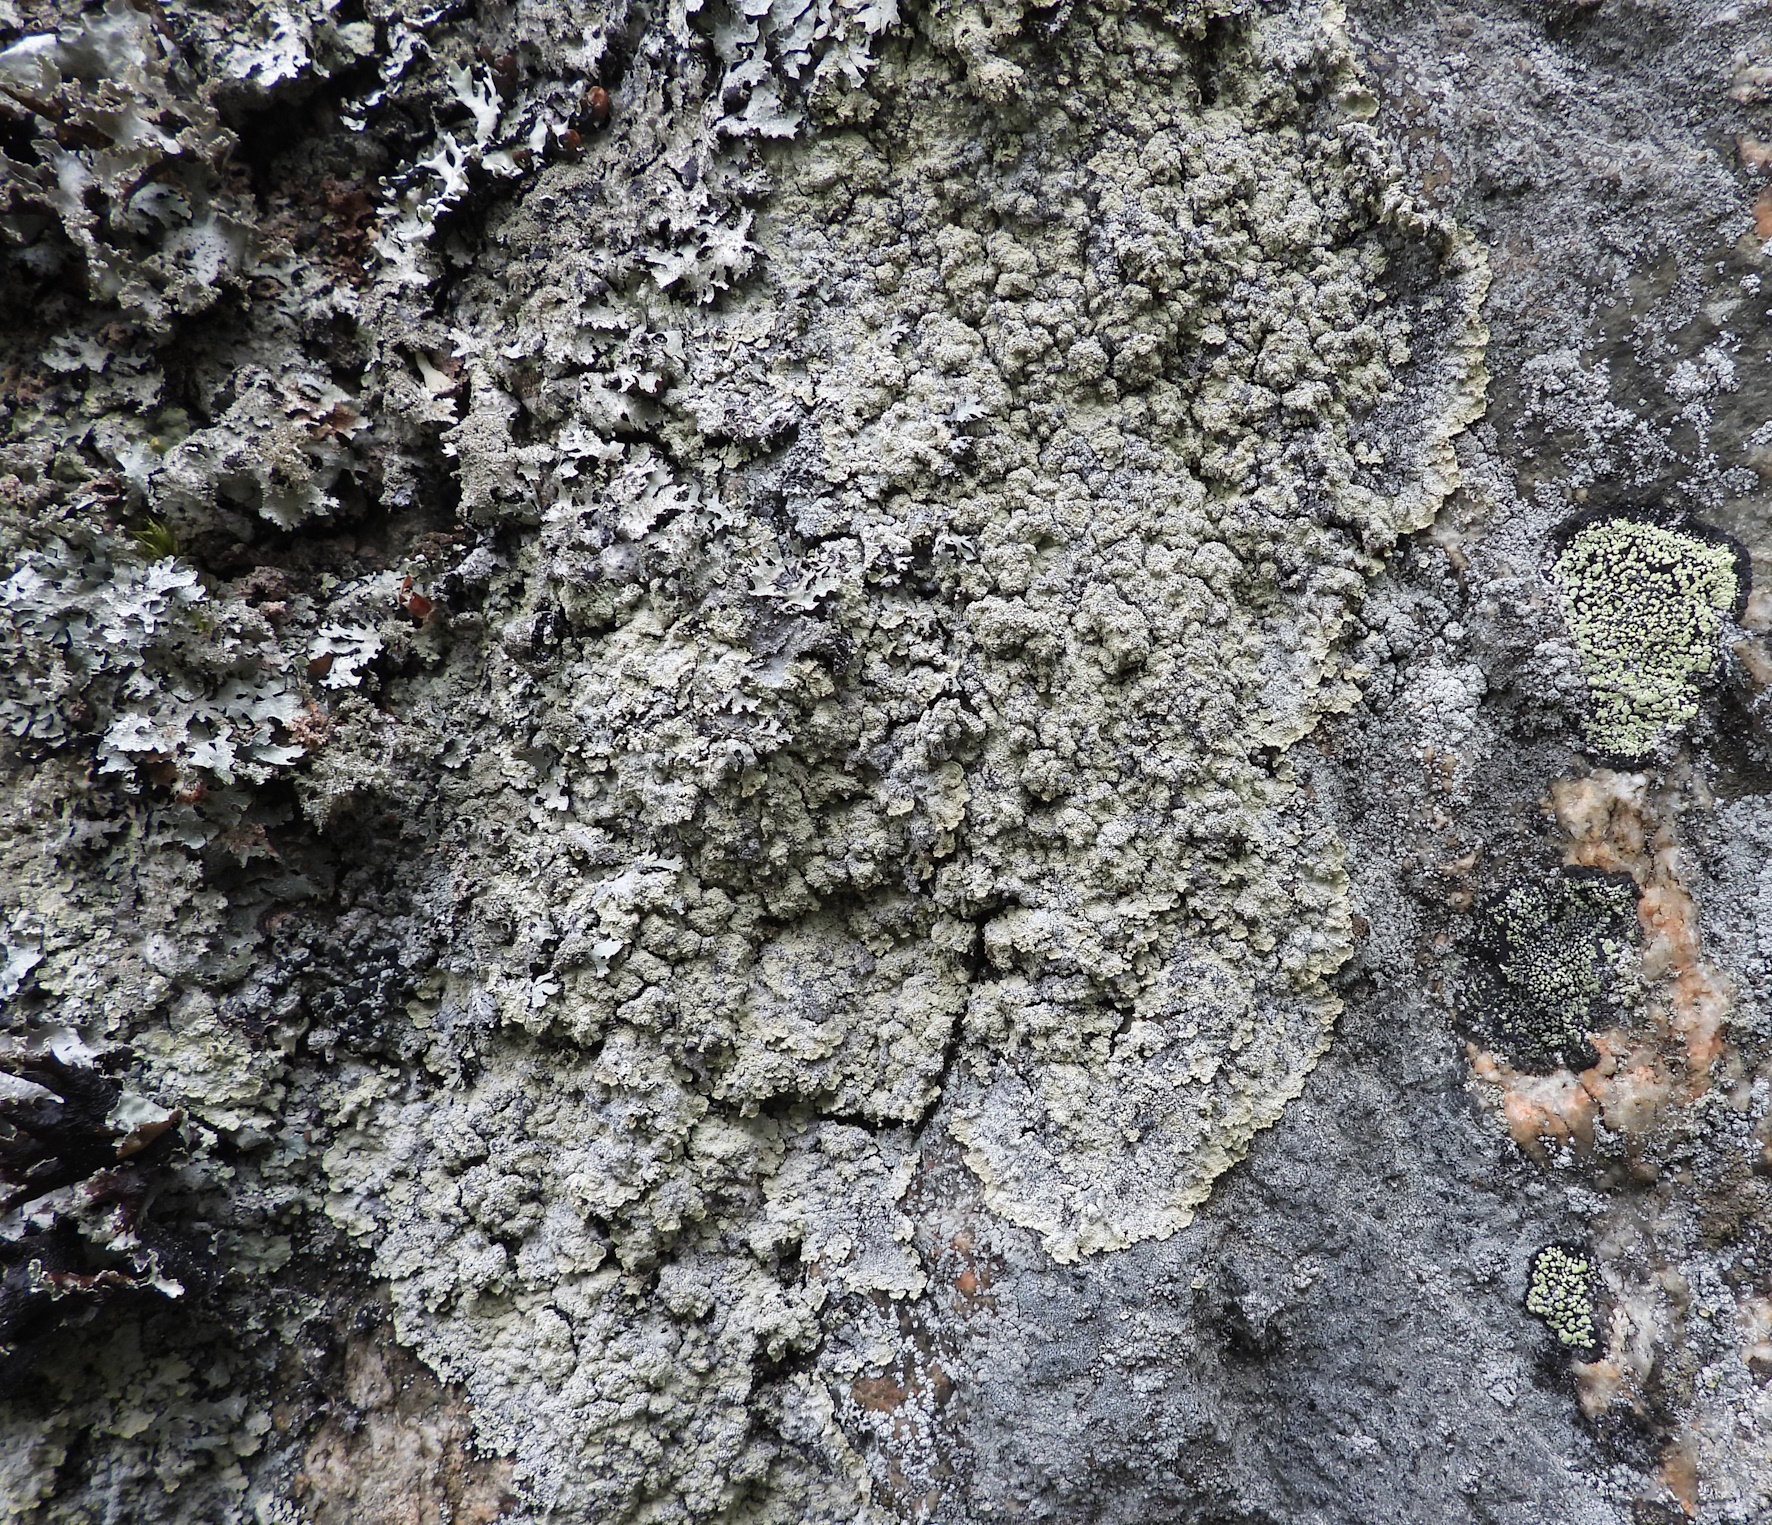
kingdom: Fungi
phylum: Ascomycota
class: Lecanoromycetes
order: Lecanorales
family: Stereocaulaceae
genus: Lepraria
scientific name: Lepraria membranacea
